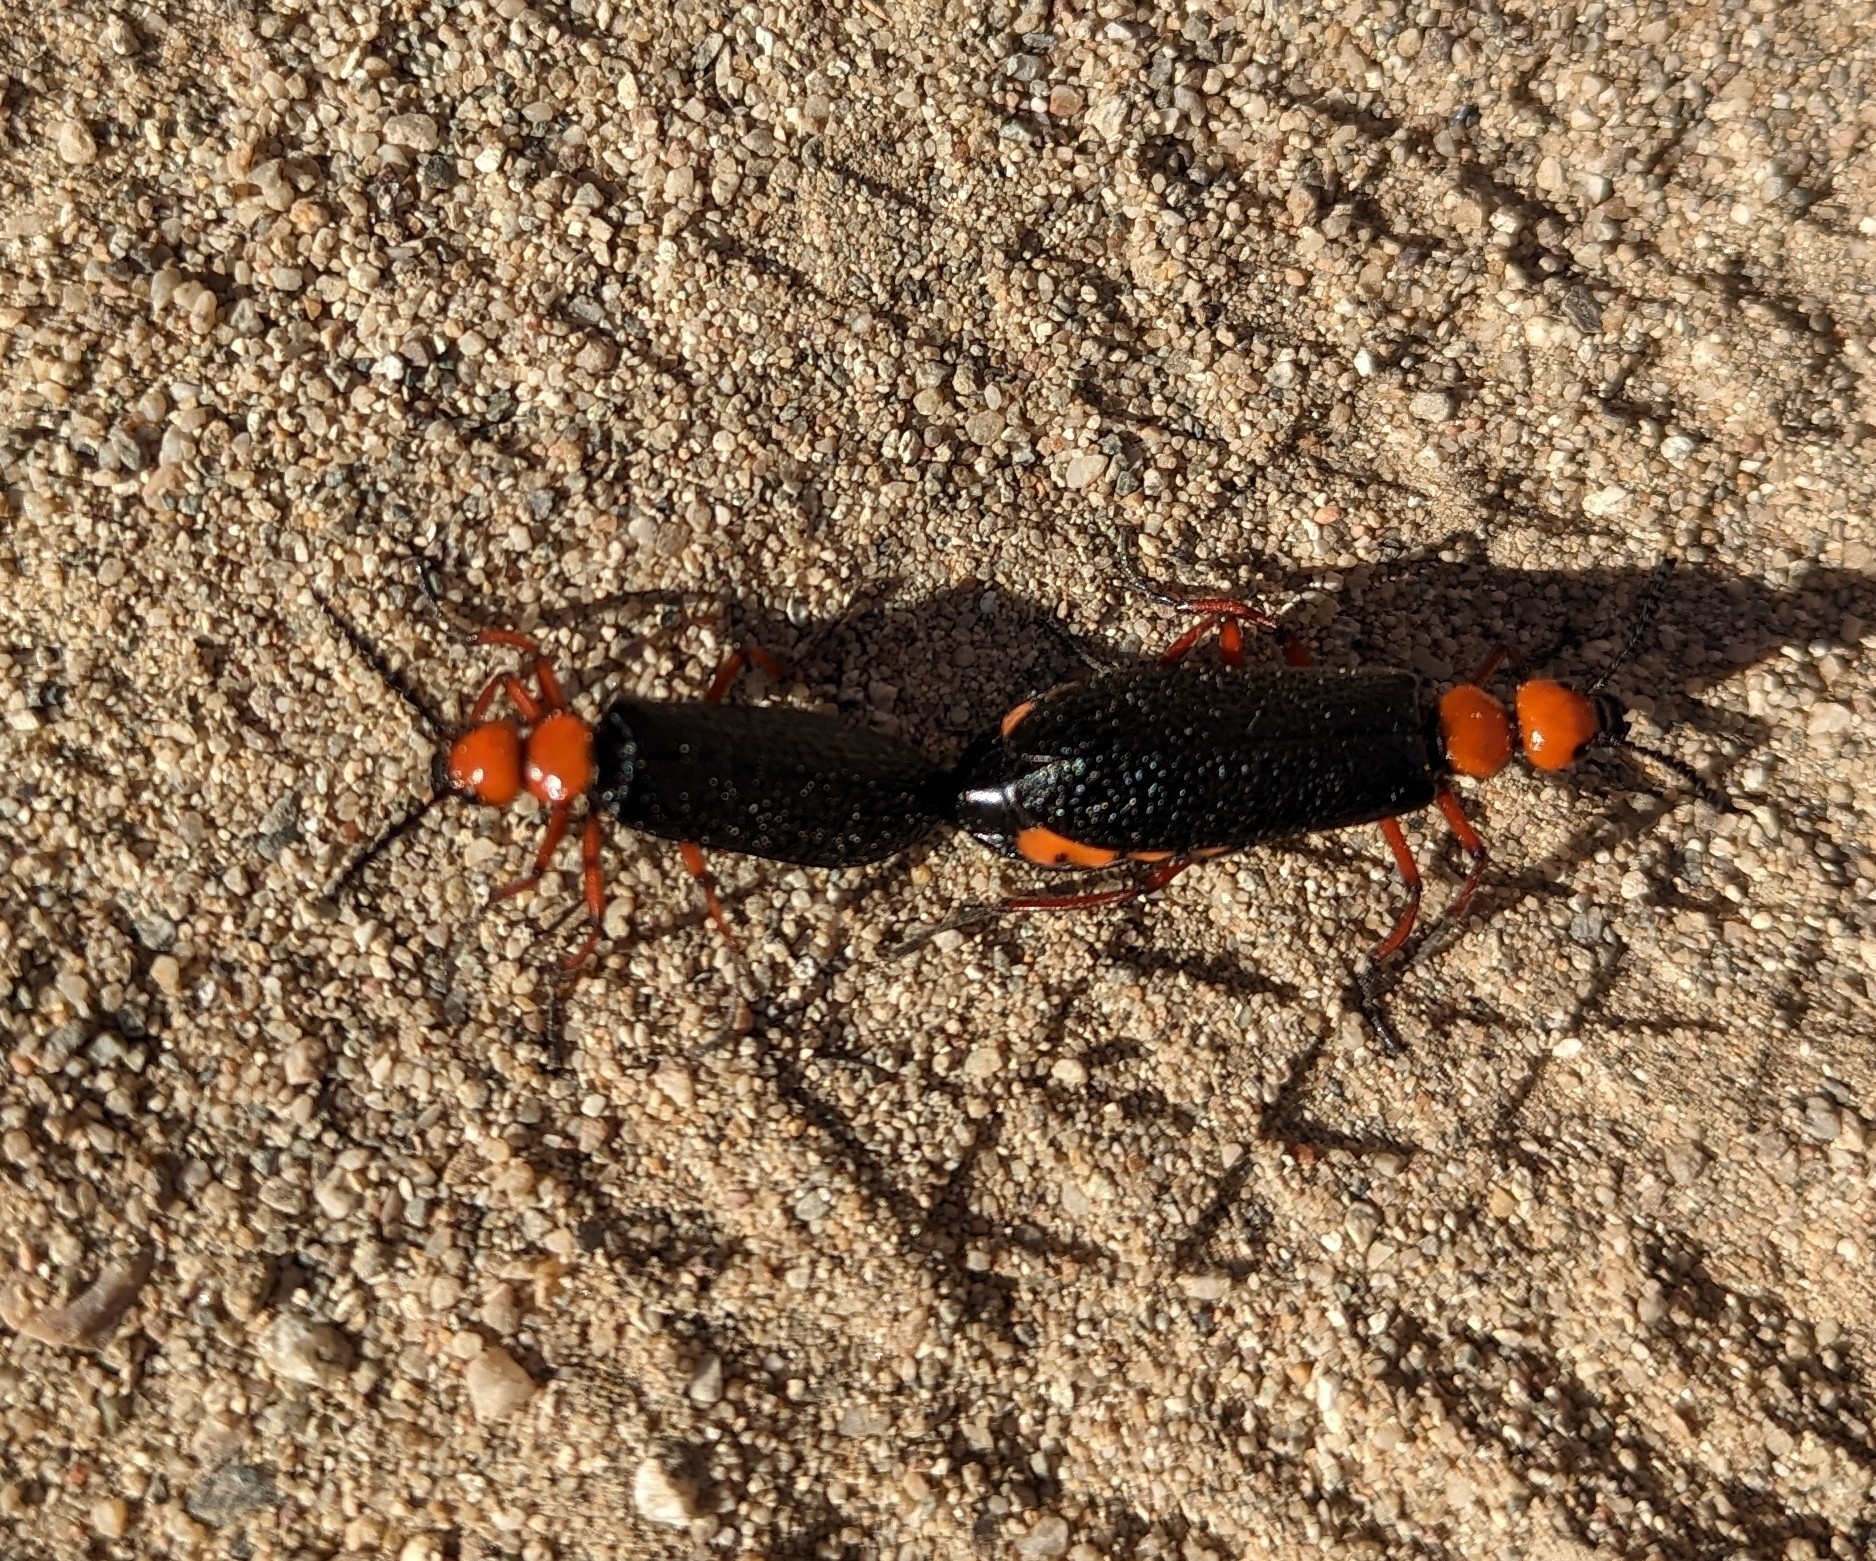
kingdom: Animalia
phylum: Arthropoda
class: Insecta
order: Coleoptera
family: Meloidae
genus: Lytta
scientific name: Lytta magister
